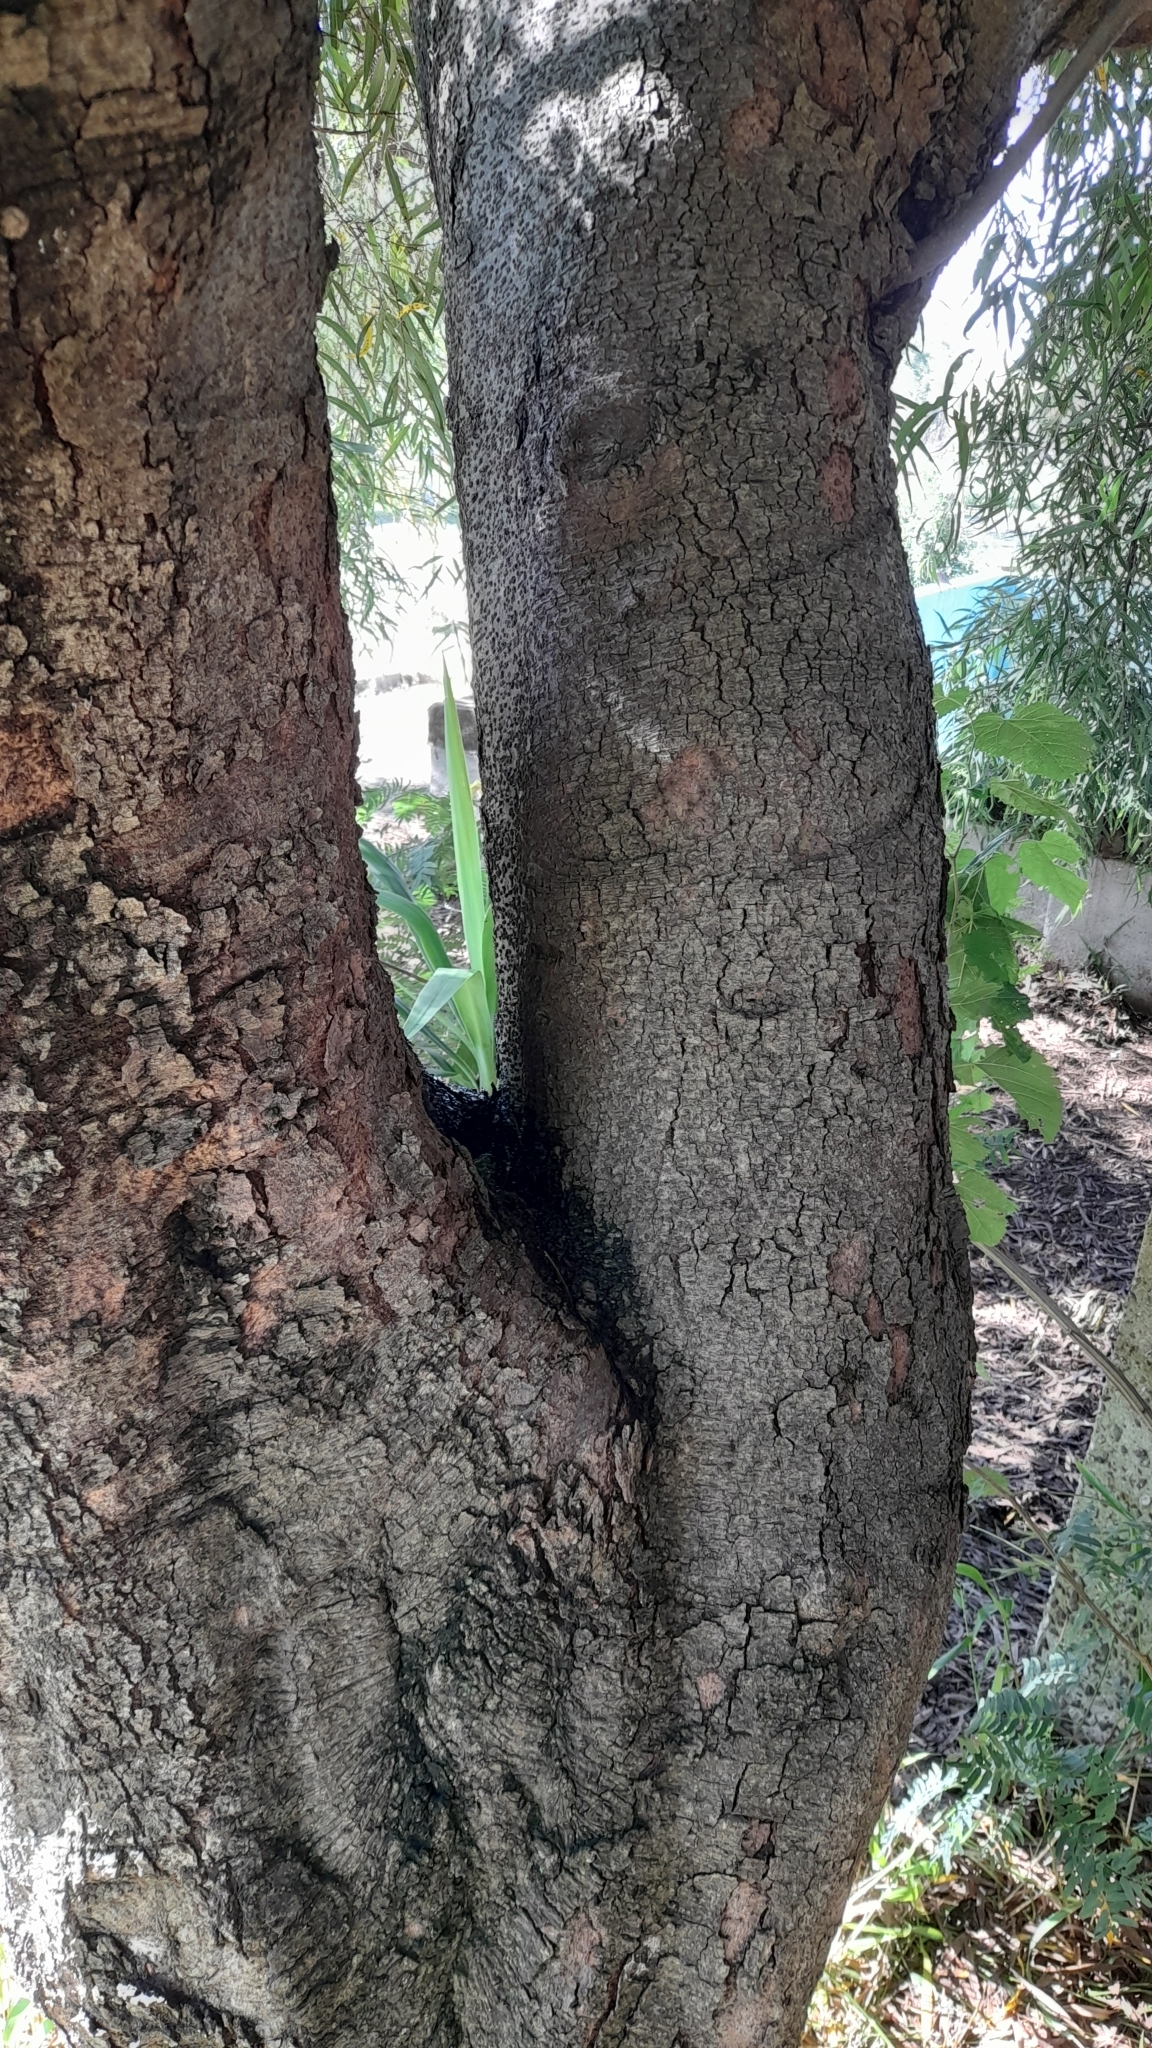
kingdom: Plantae
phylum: Tracheophyta
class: Magnoliopsida
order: Laurales
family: Lauraceae
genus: Nectandra
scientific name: Nectandra angustifolia
